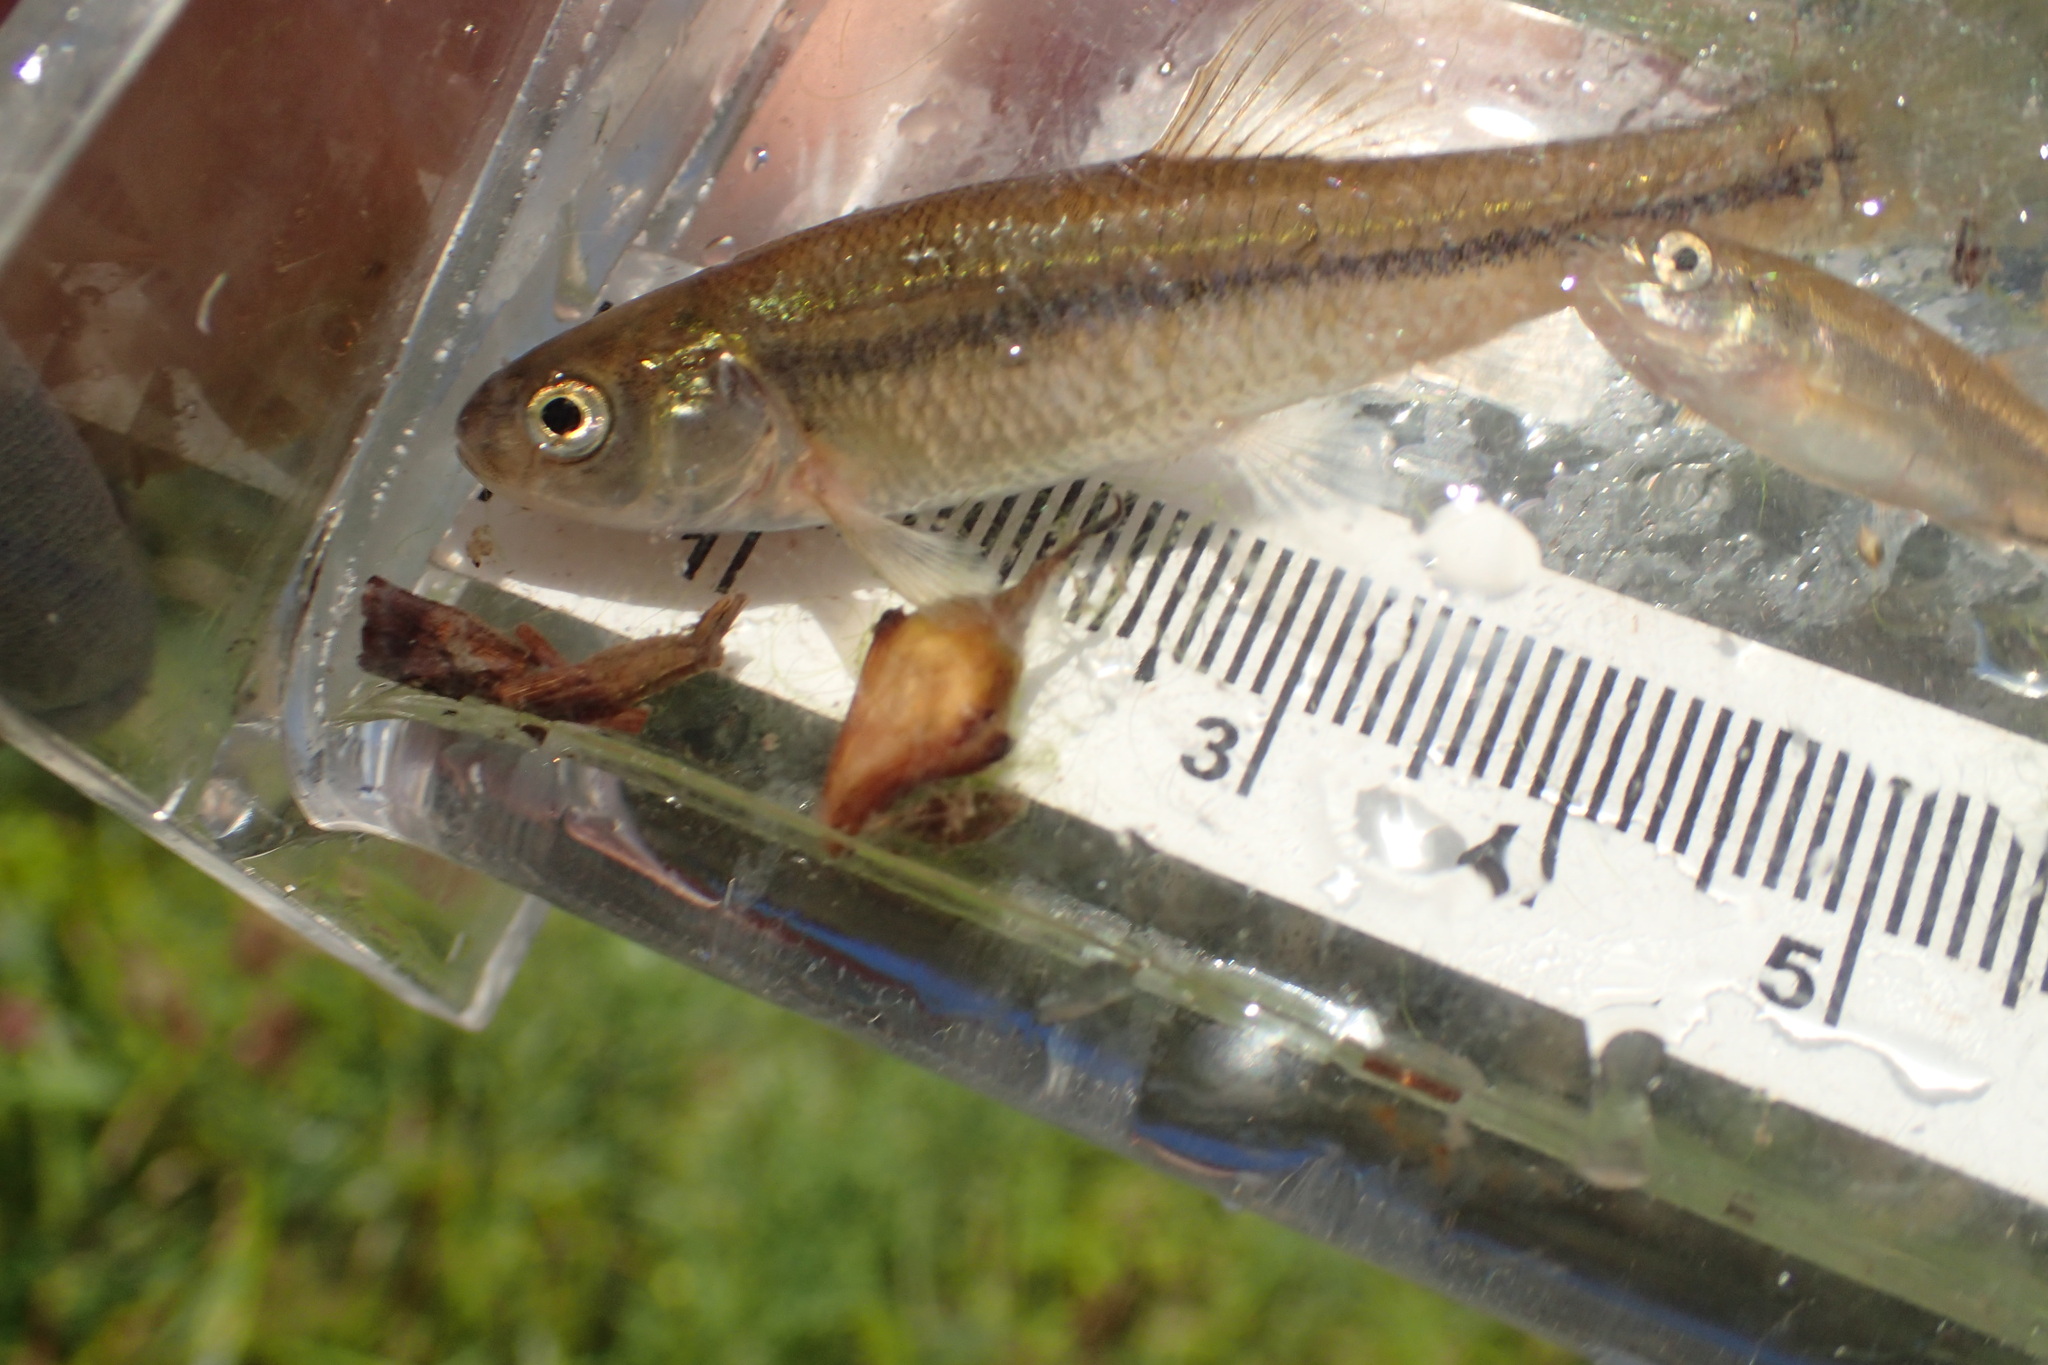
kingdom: Animalia
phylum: Chordata
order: Cypriniformes
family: Cyprinidae
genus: Pimephales
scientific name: Pimephales promelas
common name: Fathead minnow
